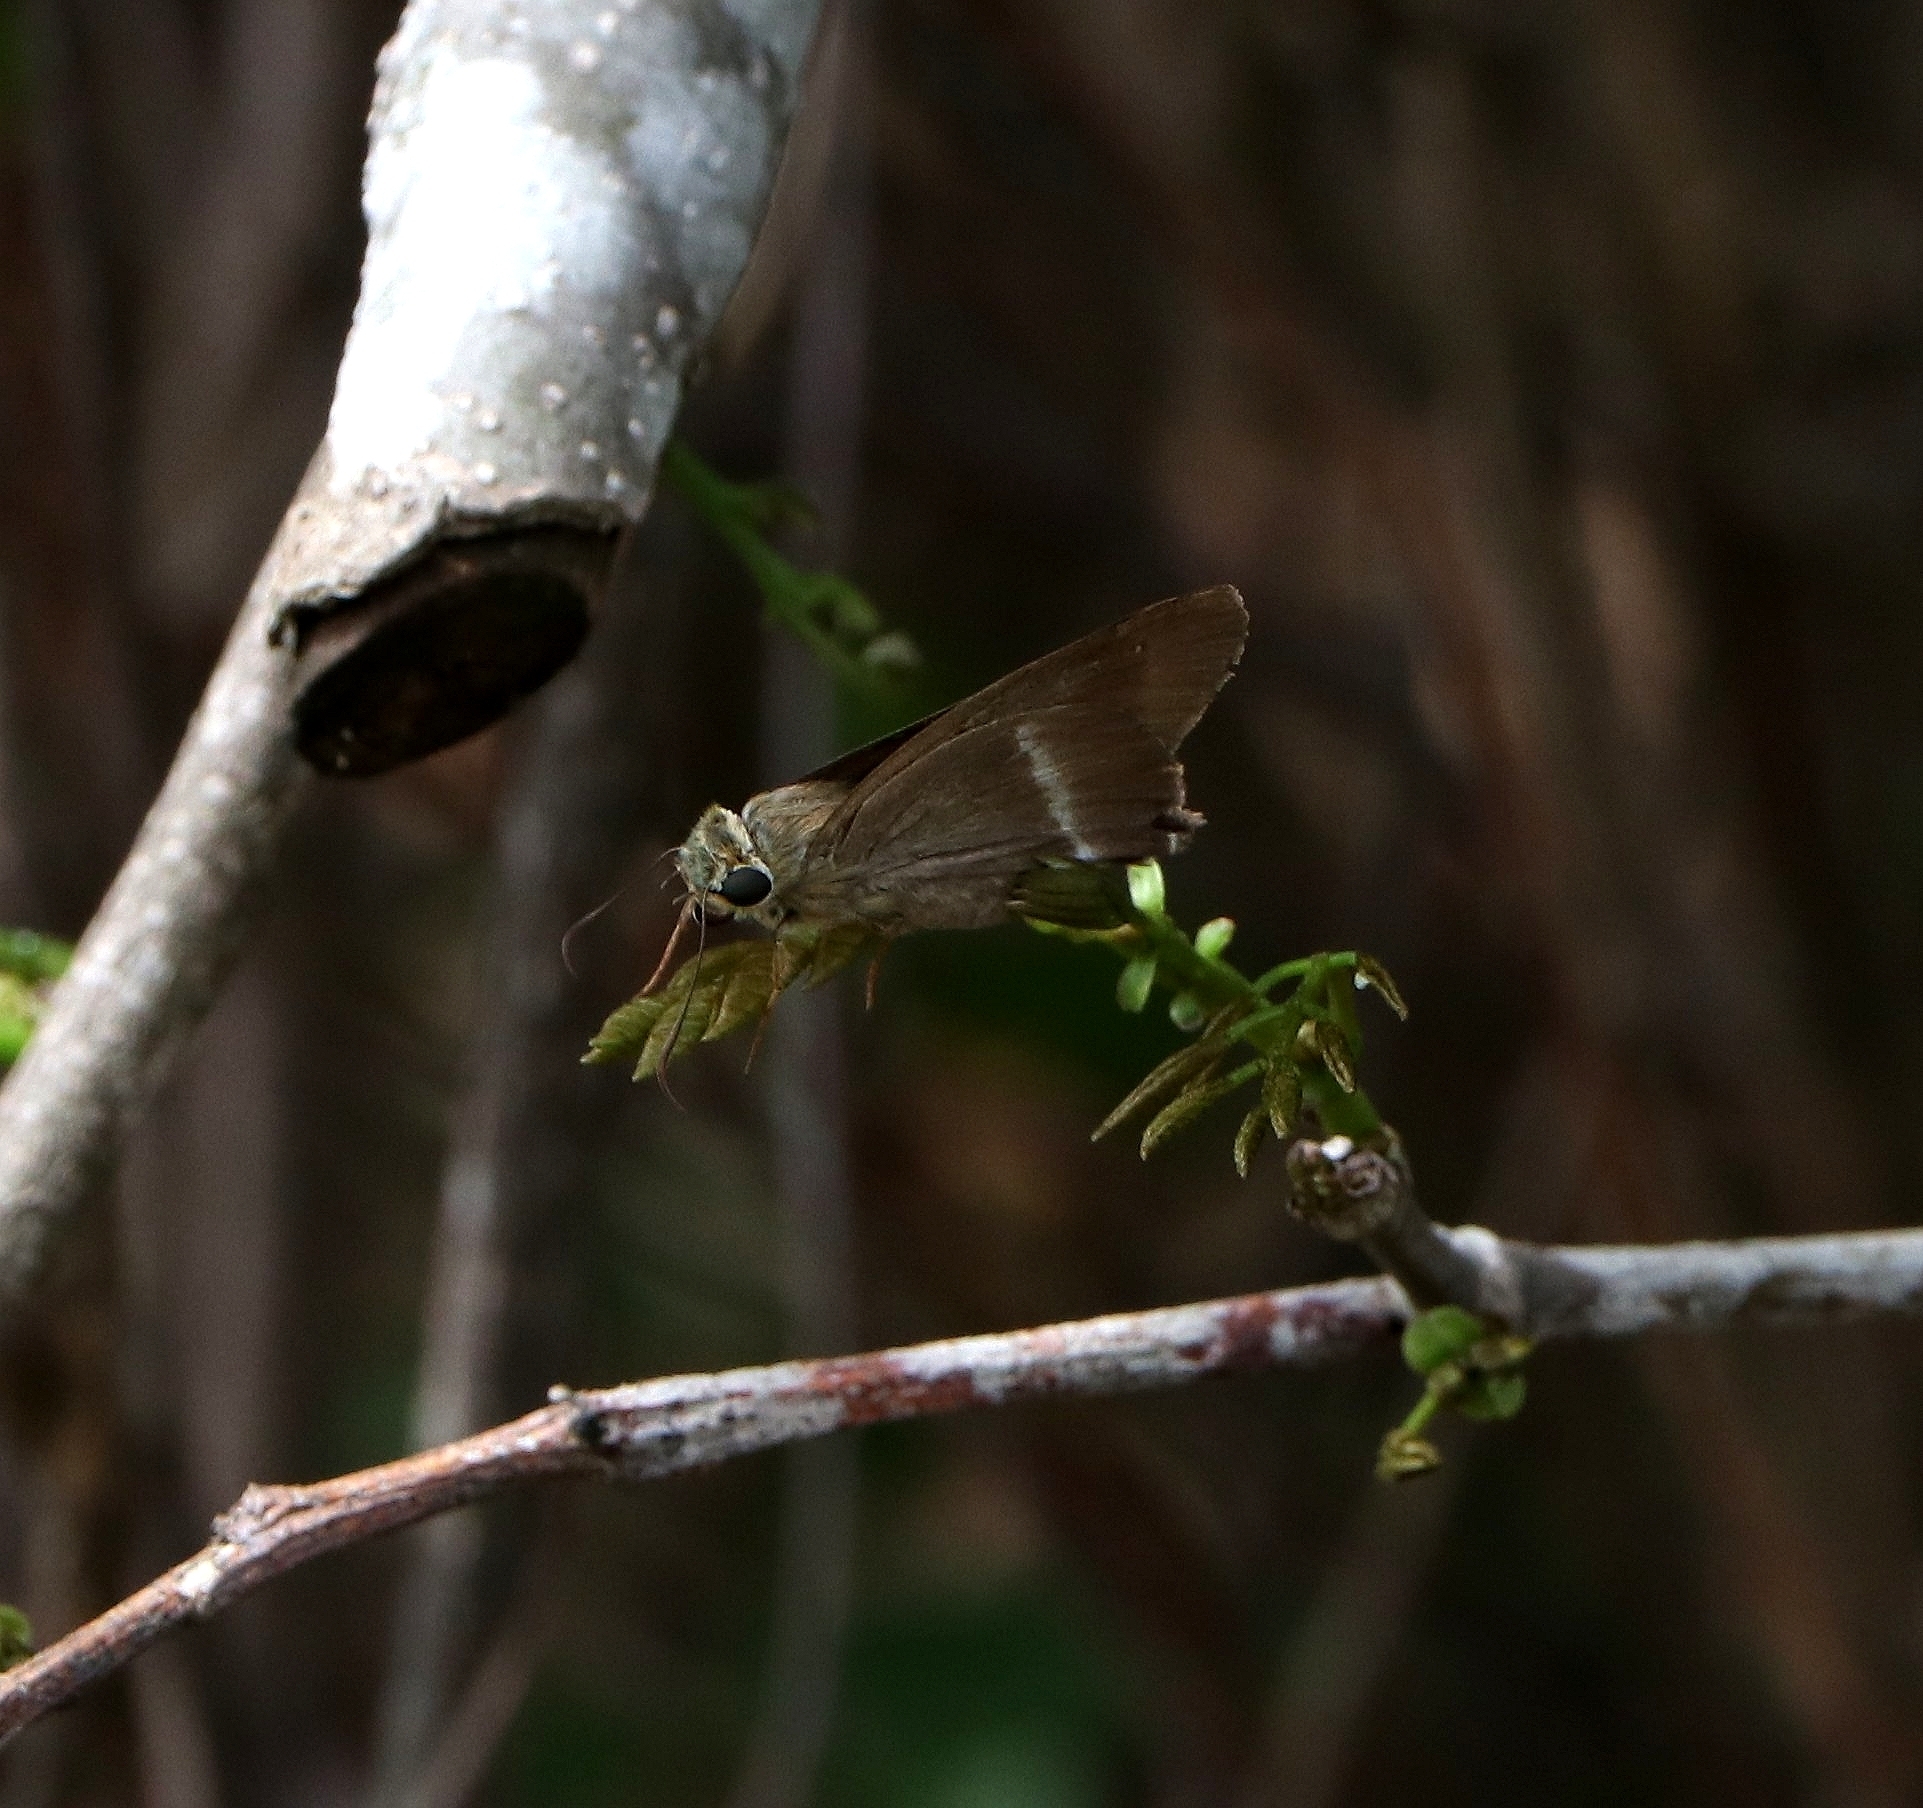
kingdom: Animalia
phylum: Arthropoda
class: Insecta
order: Lepidoptera
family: Hesperiidae
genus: Hasora
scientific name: Hasora chromus
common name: Common banded awl
